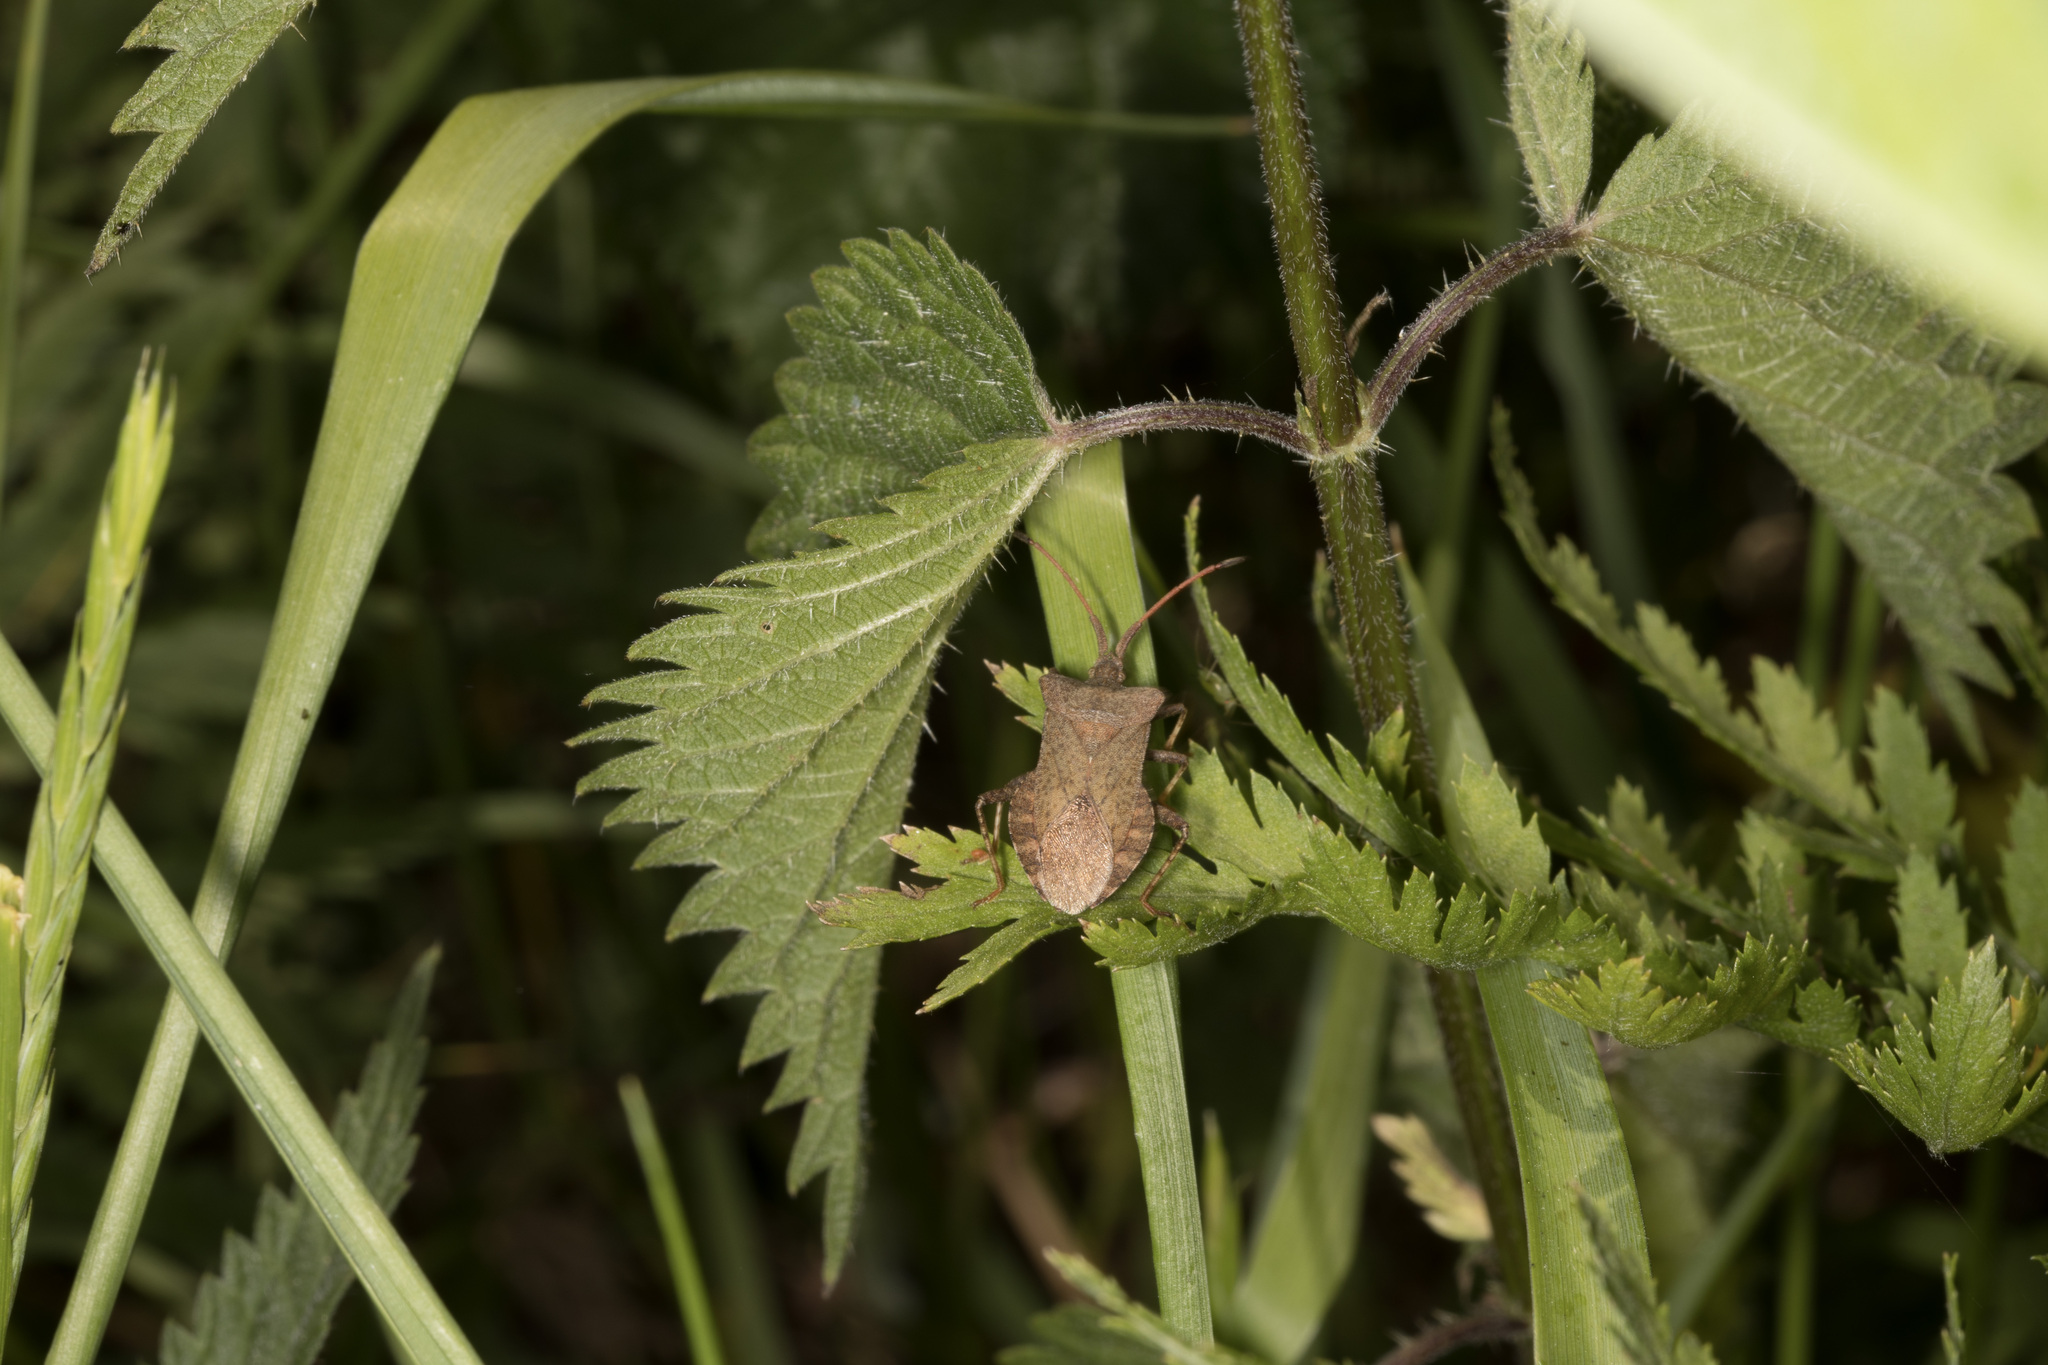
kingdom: Animalia
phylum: Arthropoda
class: Insecta
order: Hemiptera
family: Coreidae
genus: Coreus
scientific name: Coreus marginatus
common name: Dock bug
